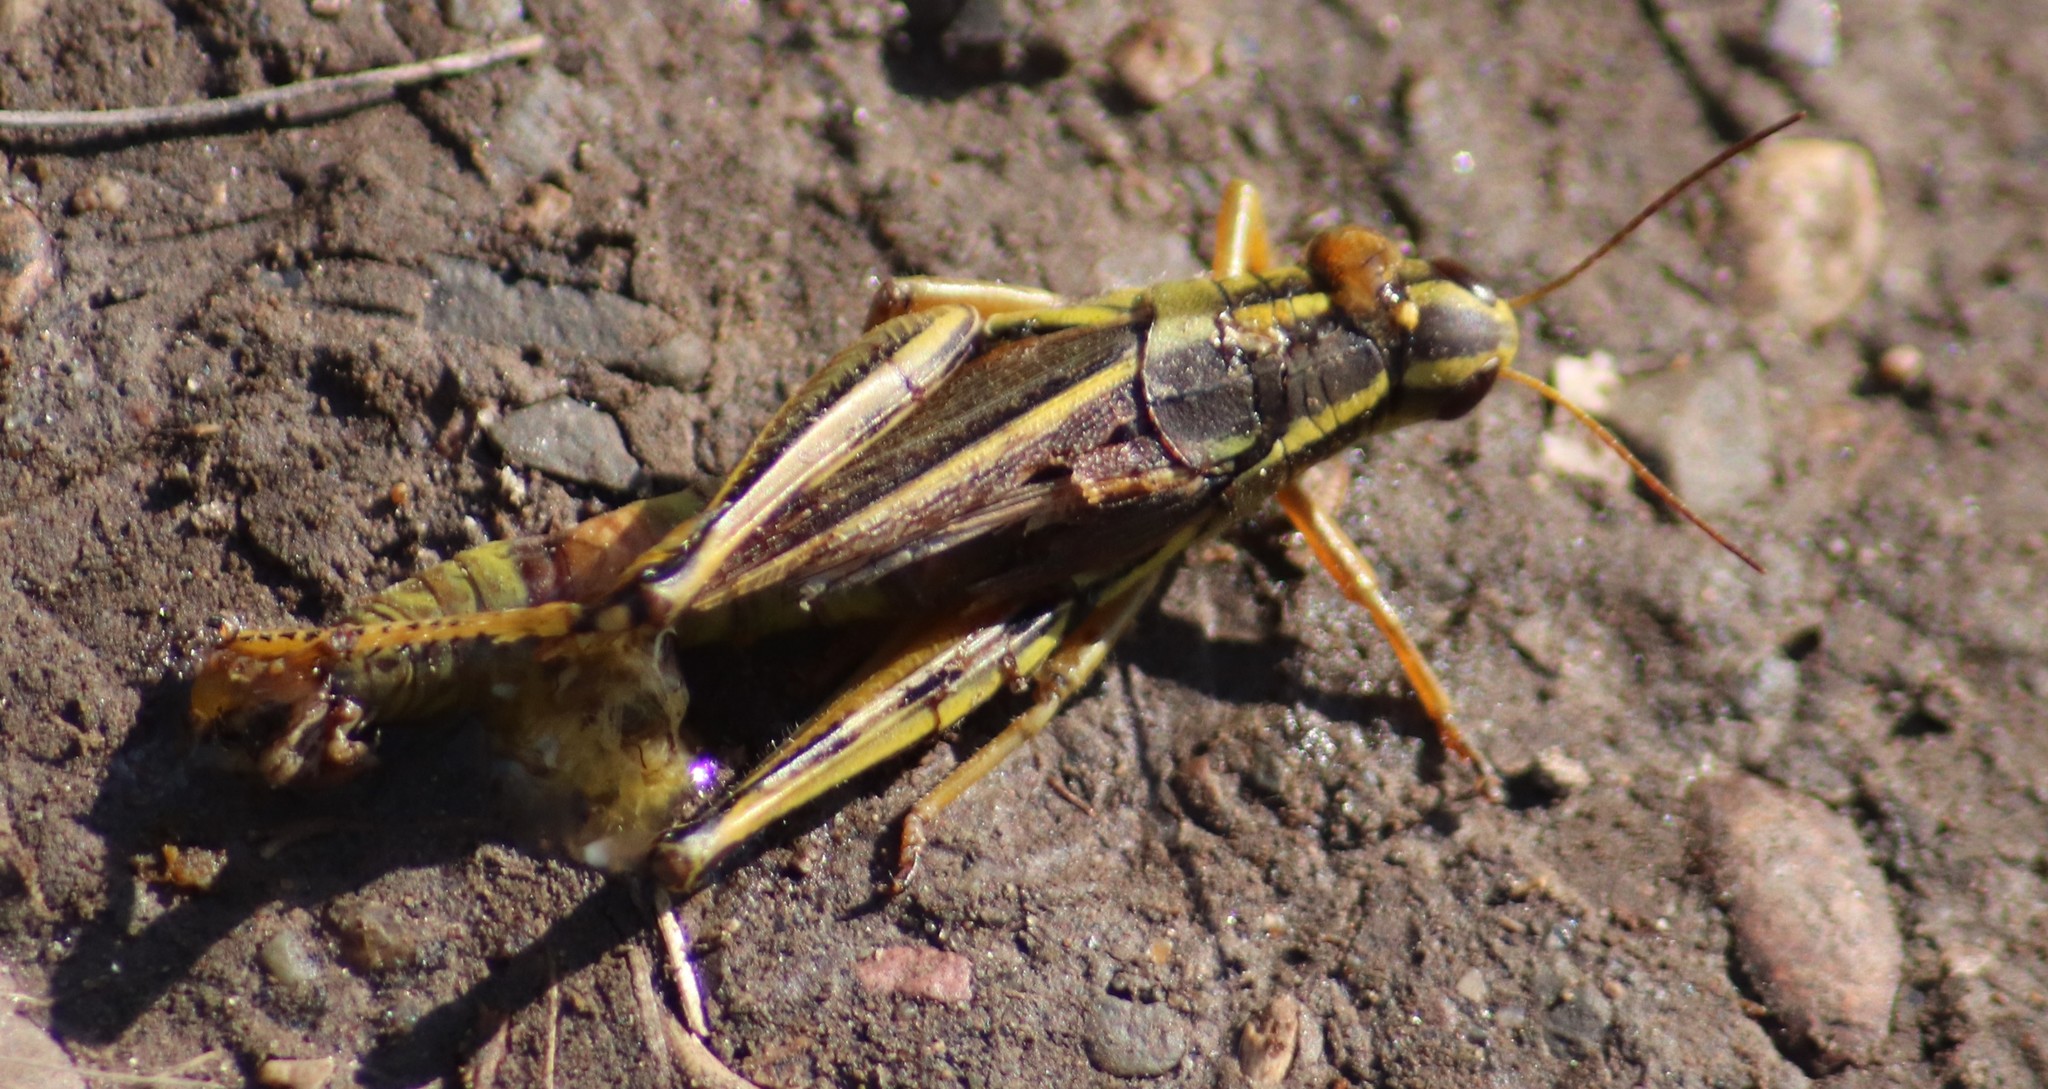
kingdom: Animalia
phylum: Arthropoda
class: Insecta
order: Orthoptera
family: Acrididae
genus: Melanoplus
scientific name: Melanoplus bivittatus
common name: Two-striped grasshopper
